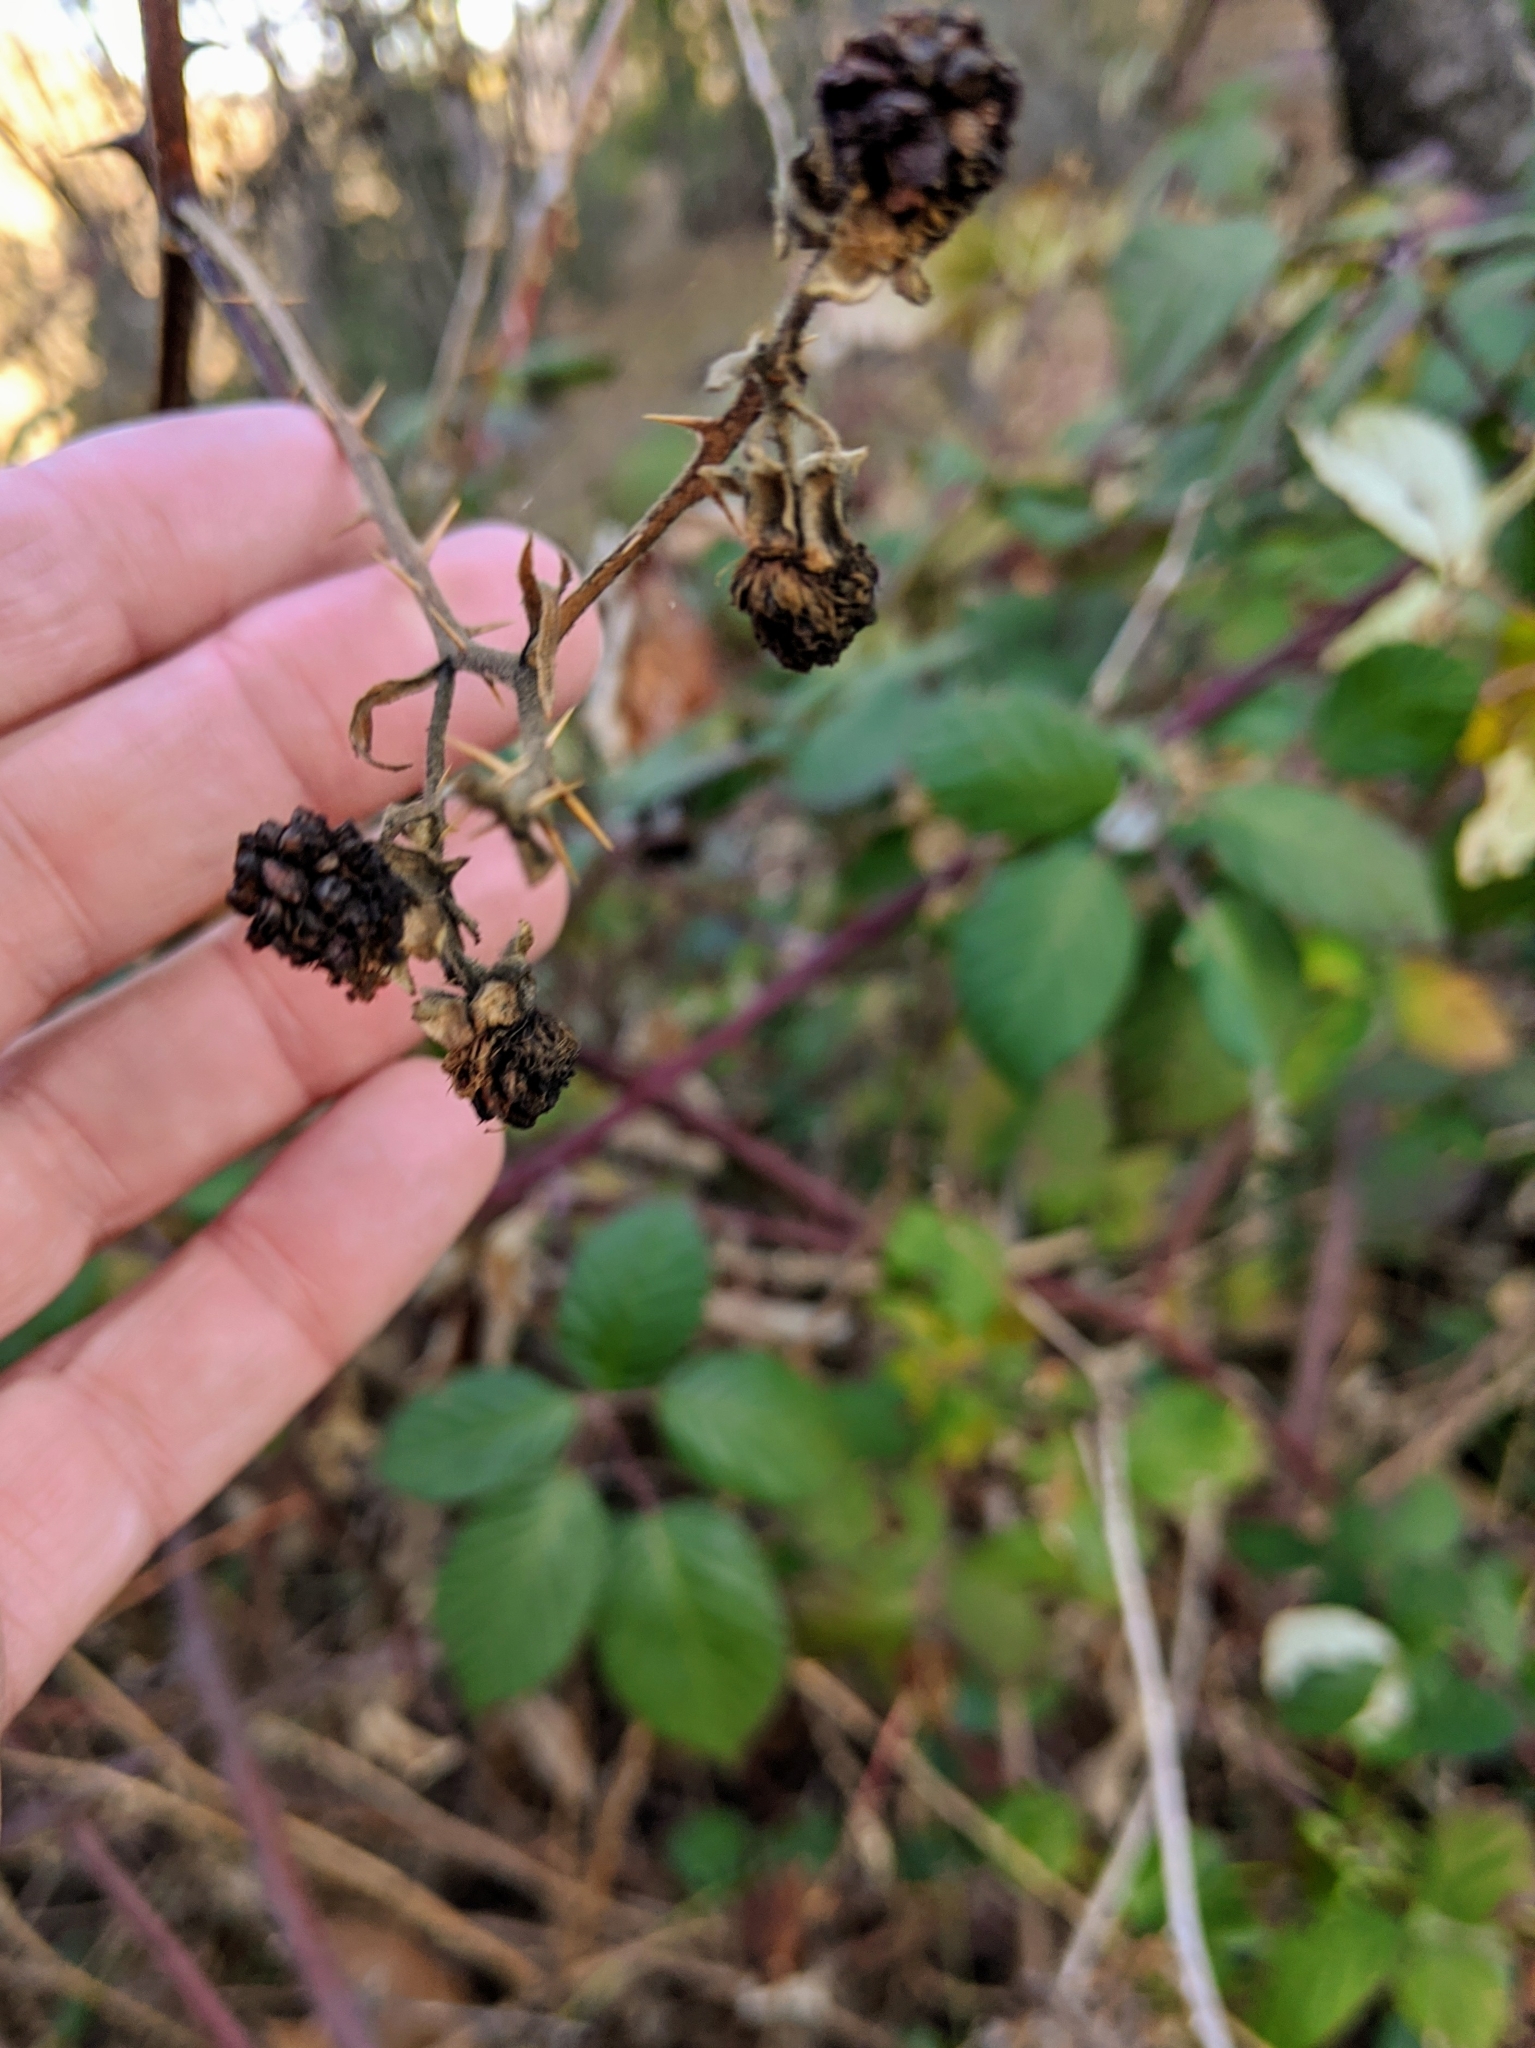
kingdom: Plantae
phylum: Tracheophyta
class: Magnoliopsida
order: Rosales
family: Rosaceae
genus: Rubus
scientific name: Rubus armeniacus
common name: Himalayan blackberry
